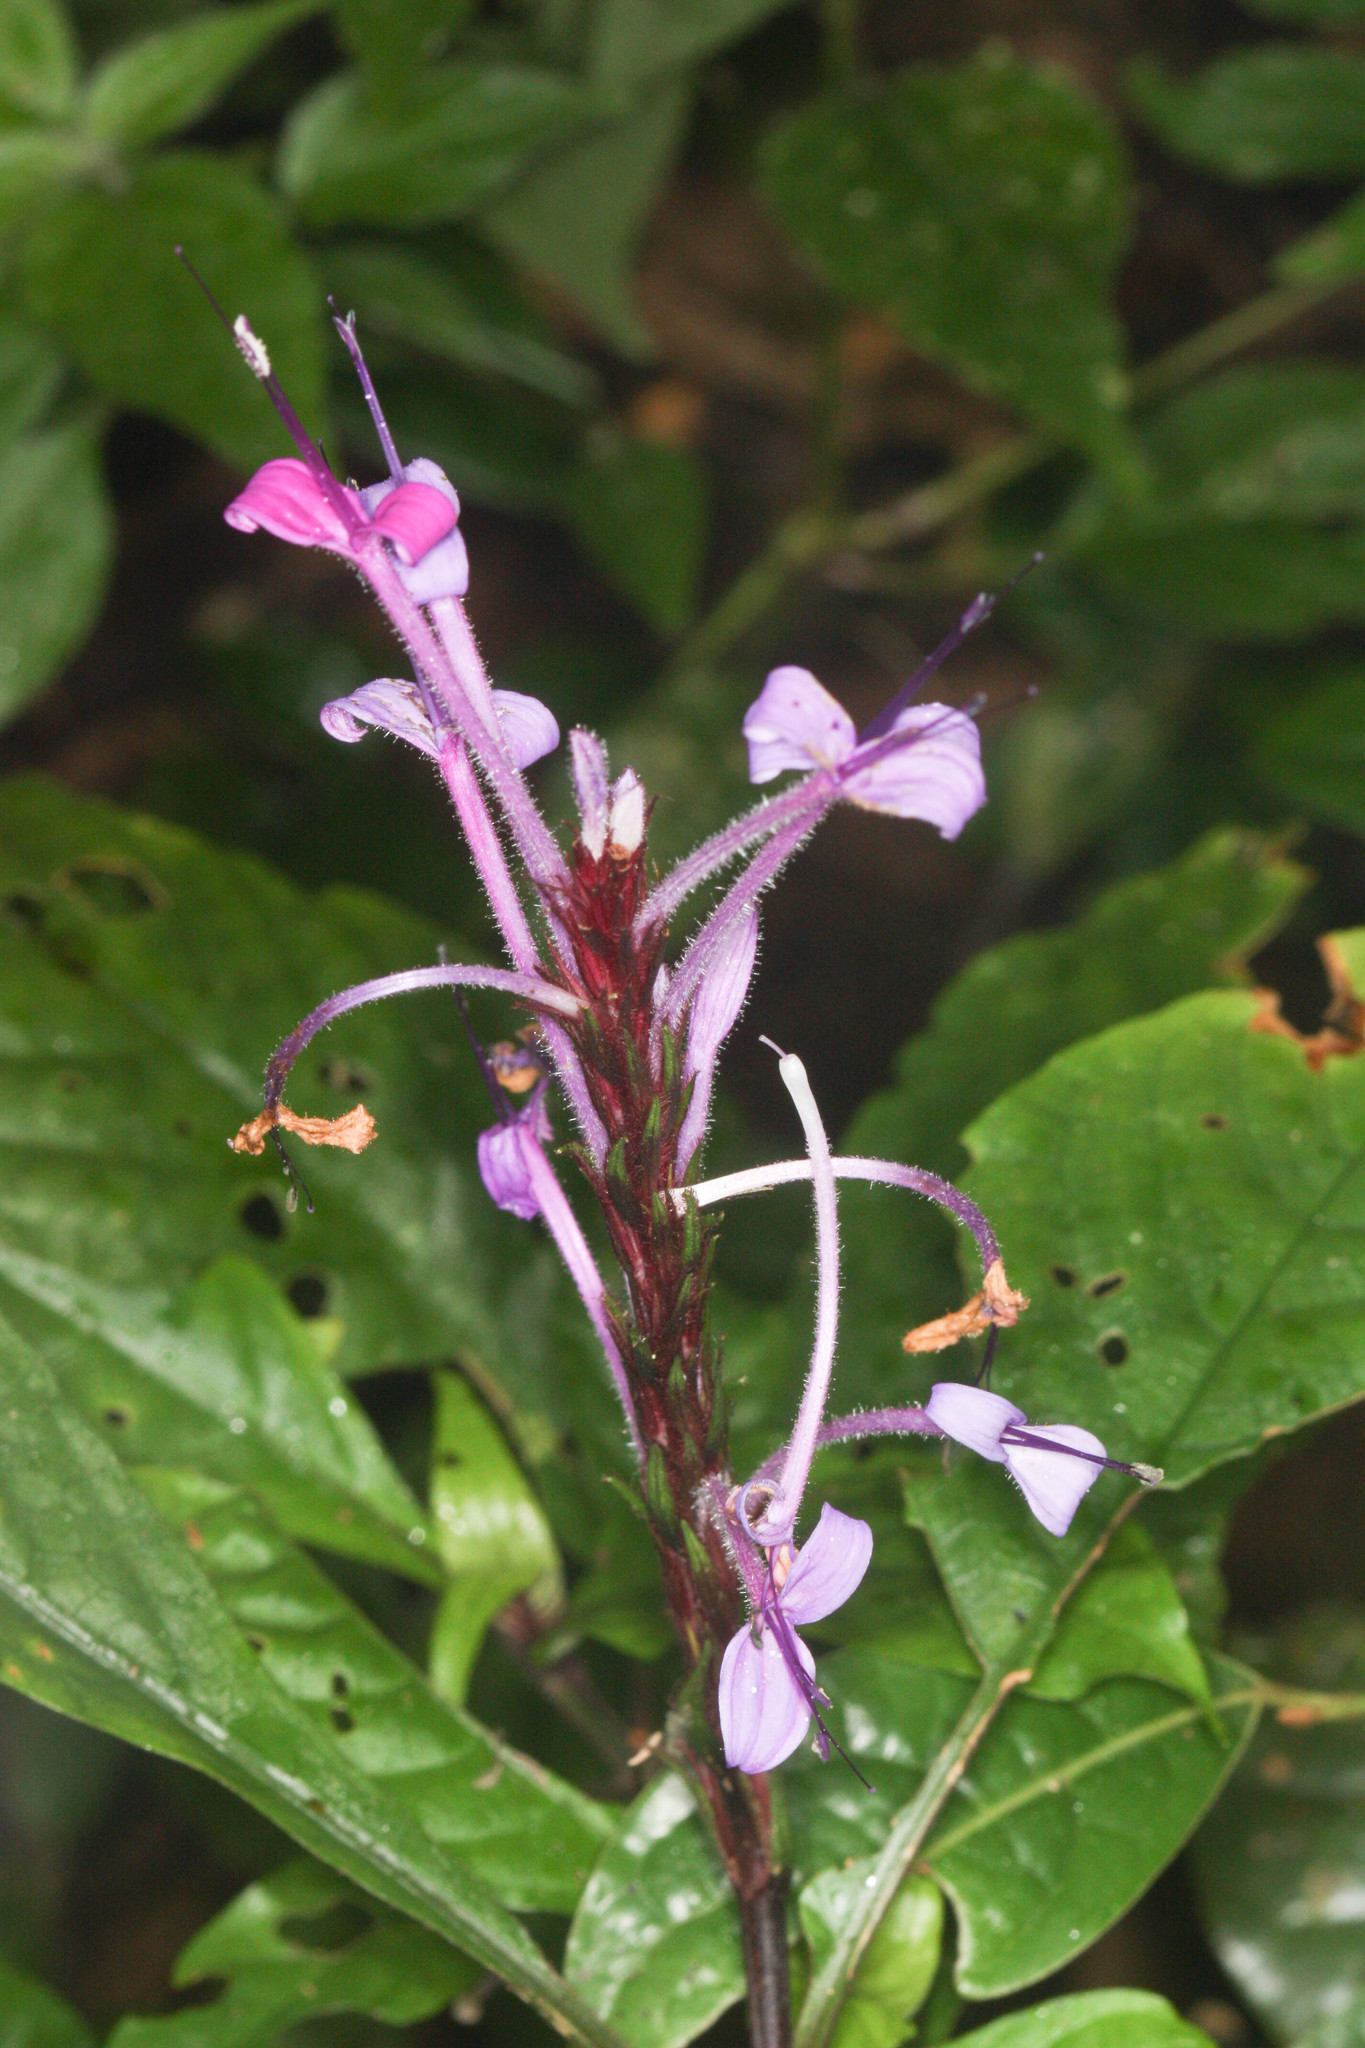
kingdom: Plantae
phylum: Tracheophyta
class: Magnoliopsida
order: Lamiales
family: Acanthaceae
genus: Brachystephanus
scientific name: Brachystephanus lyallii
